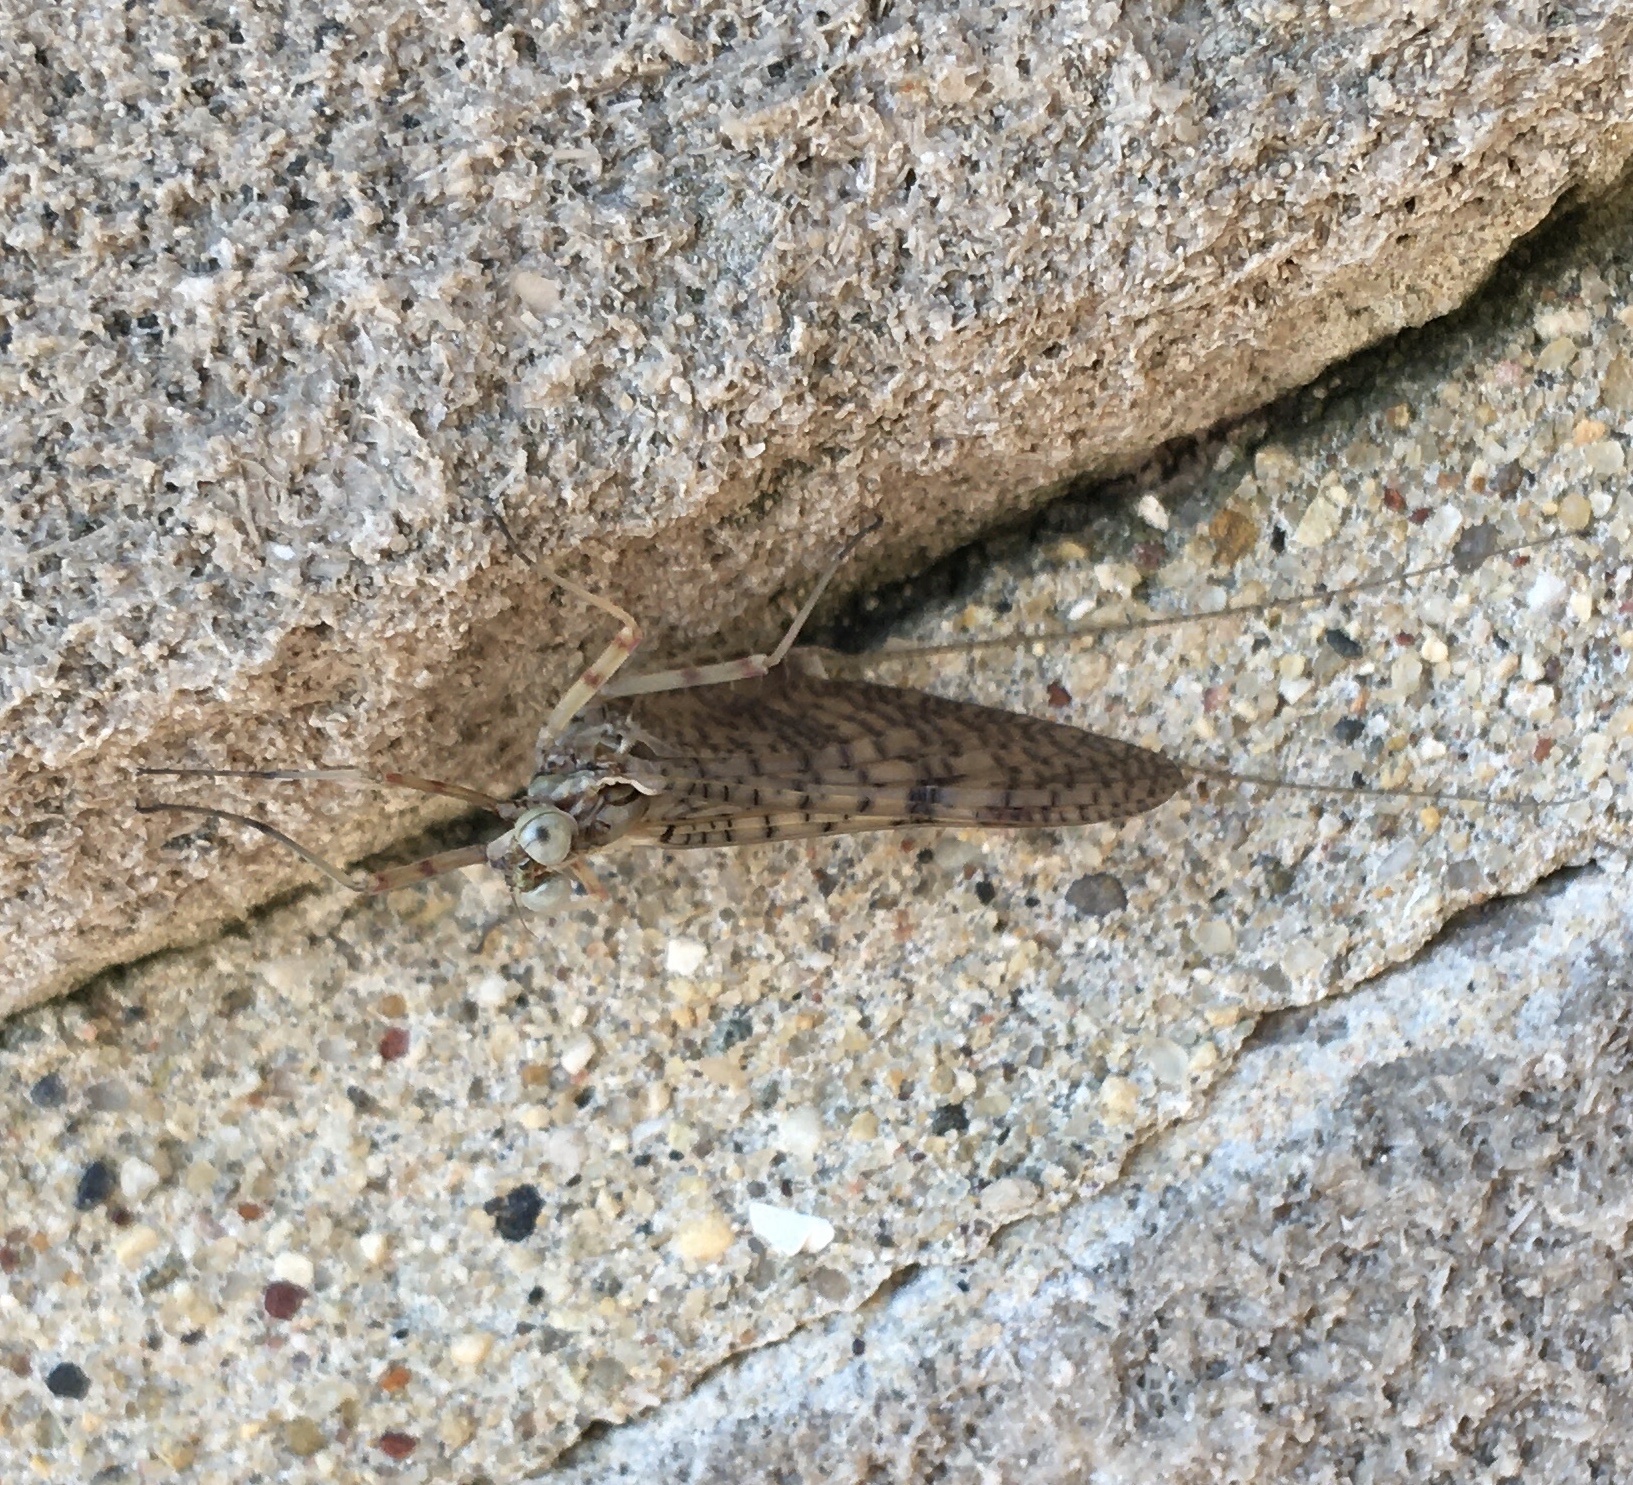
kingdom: Animalia
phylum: Arthropoda
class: Insecta
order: Ephemeroptera
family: Heptageniidae
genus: Stenonema
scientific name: Stenonema femoratum
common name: Dark cahill
